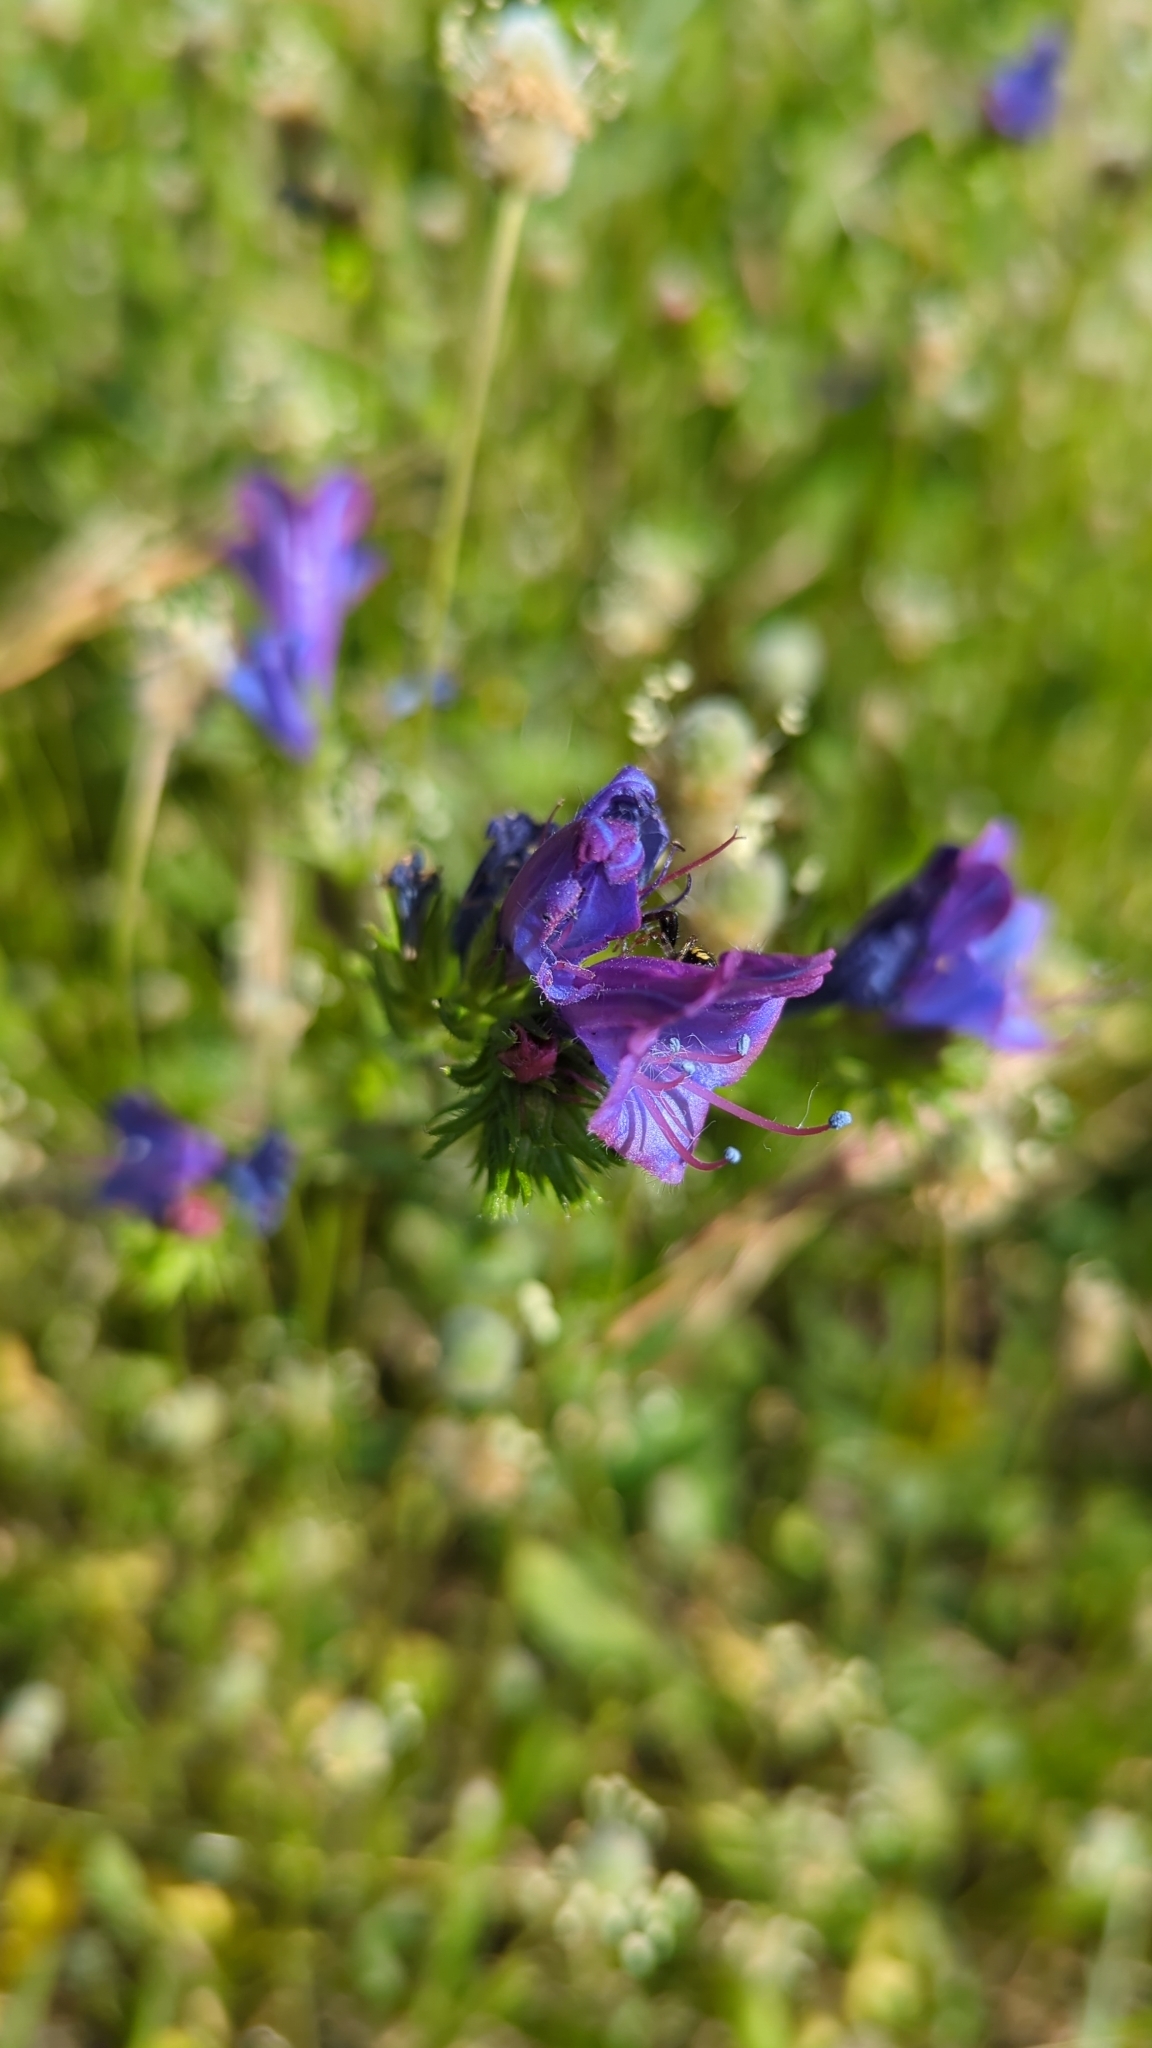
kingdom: Plantae
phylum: Tracheophyta
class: Magnoliopsida
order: Boraginales
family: Boraginaceae
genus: Echium
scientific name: Echium plantagineum
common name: Purple viper's-bugloss
